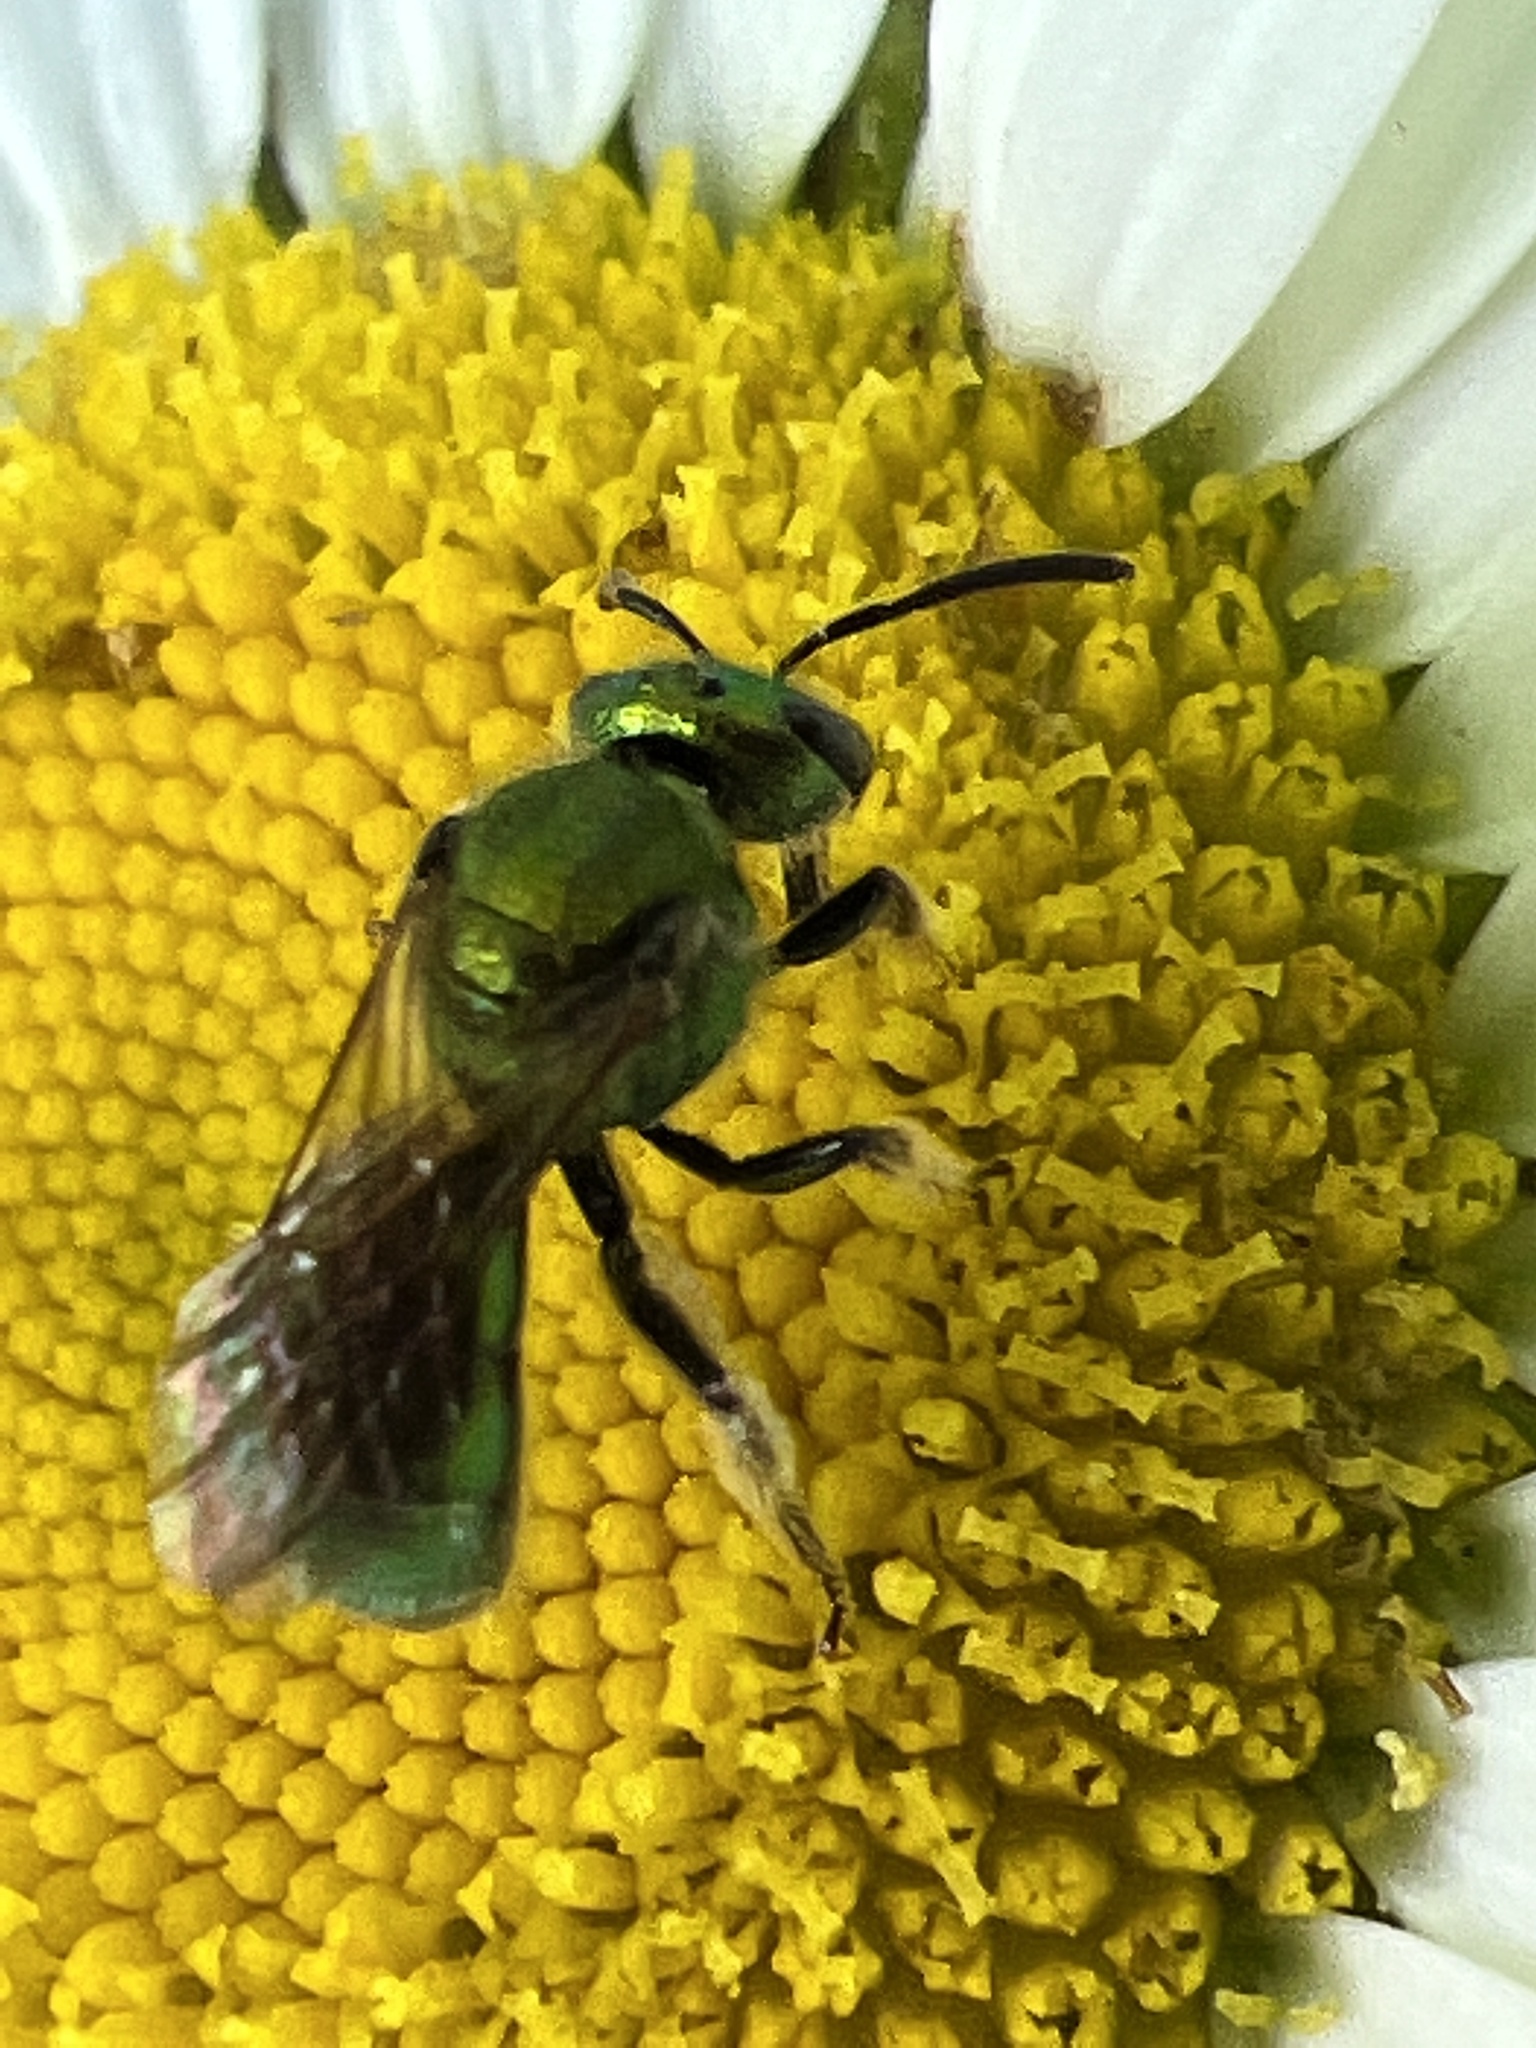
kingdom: Animalia
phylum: Arthropoda
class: Insecta
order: Hymenoptera
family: Halictidae
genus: Augochlora
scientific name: Augochlora pura
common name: Pure green sweat bee
